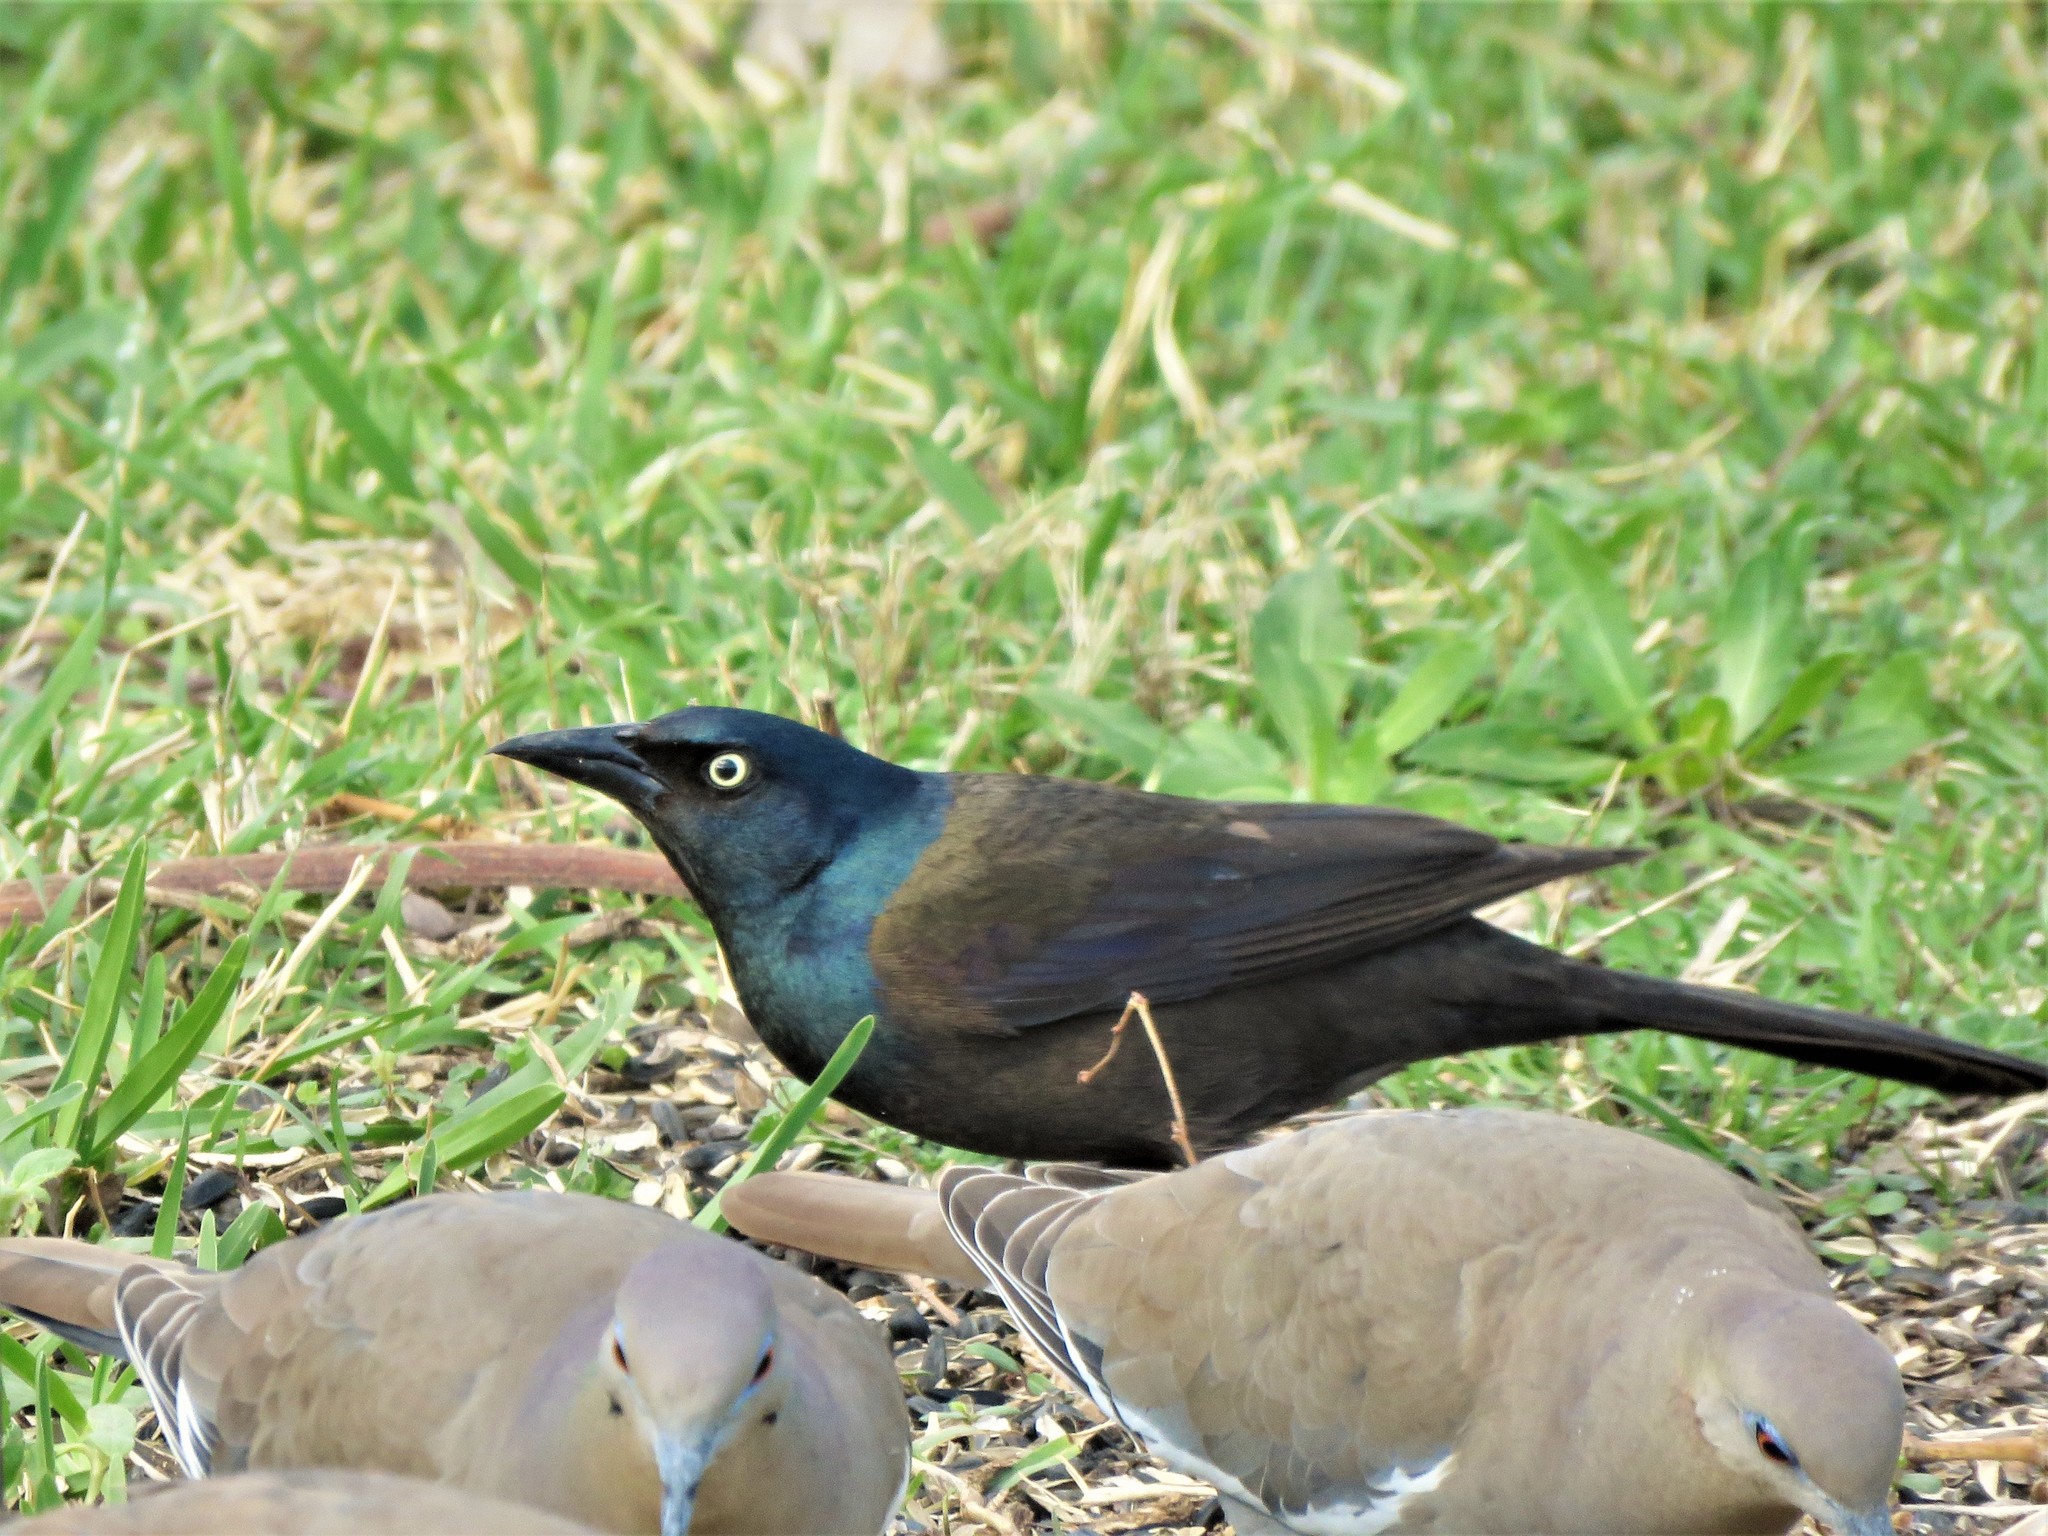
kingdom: Animalia
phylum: Chordata
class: Aves
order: Passeriformes
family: Icteridae
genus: Quiscalus
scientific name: Quiscalus quiscula
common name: Common grackle
